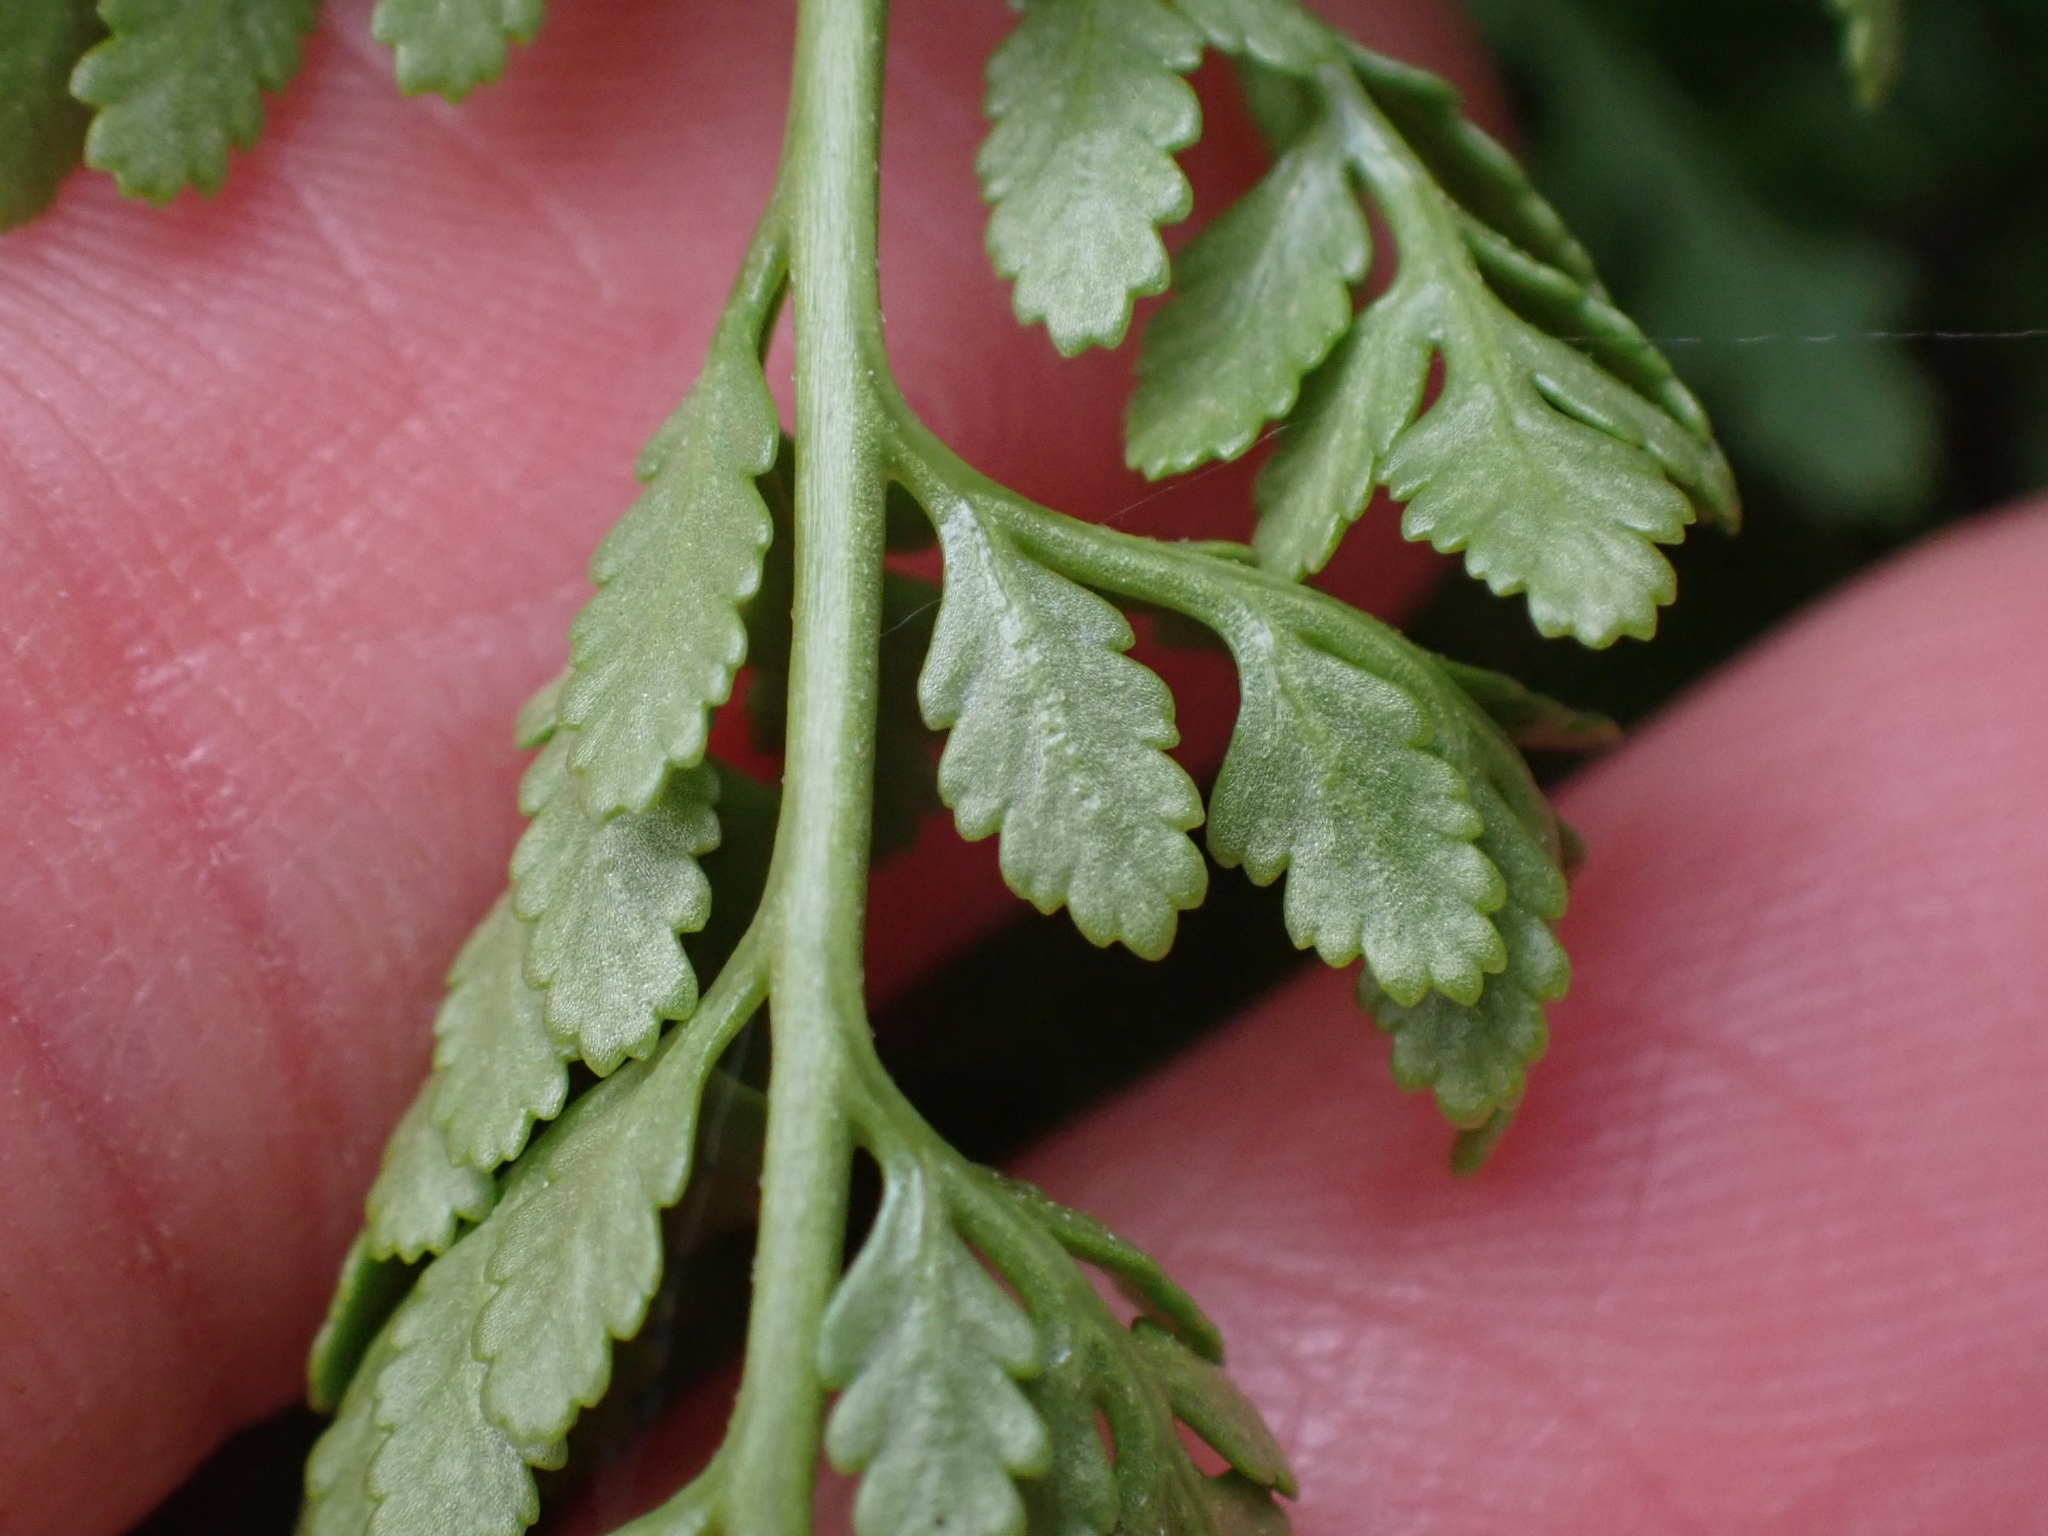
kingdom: Plantae
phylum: Tracheophyta
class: Polypodiopsida
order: Polypodiales
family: Pteridaceae
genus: Cryptogramma
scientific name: Cryptogramma acrostichoides
